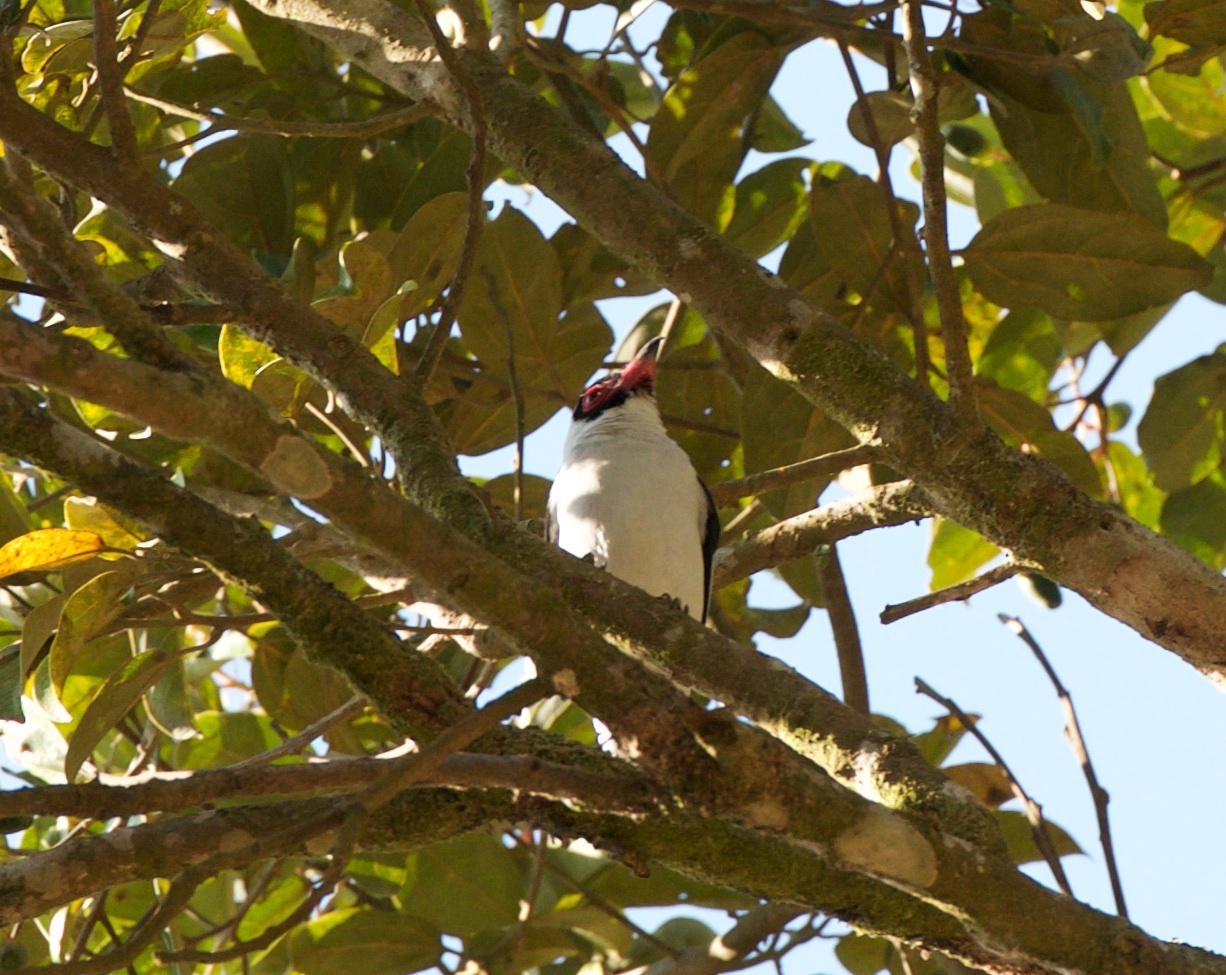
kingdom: Animalia
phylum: Chordata
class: Aves
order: Passeriformes
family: Cotingidae
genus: Tityra
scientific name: Tityra semifasciata
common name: Masked tityra
